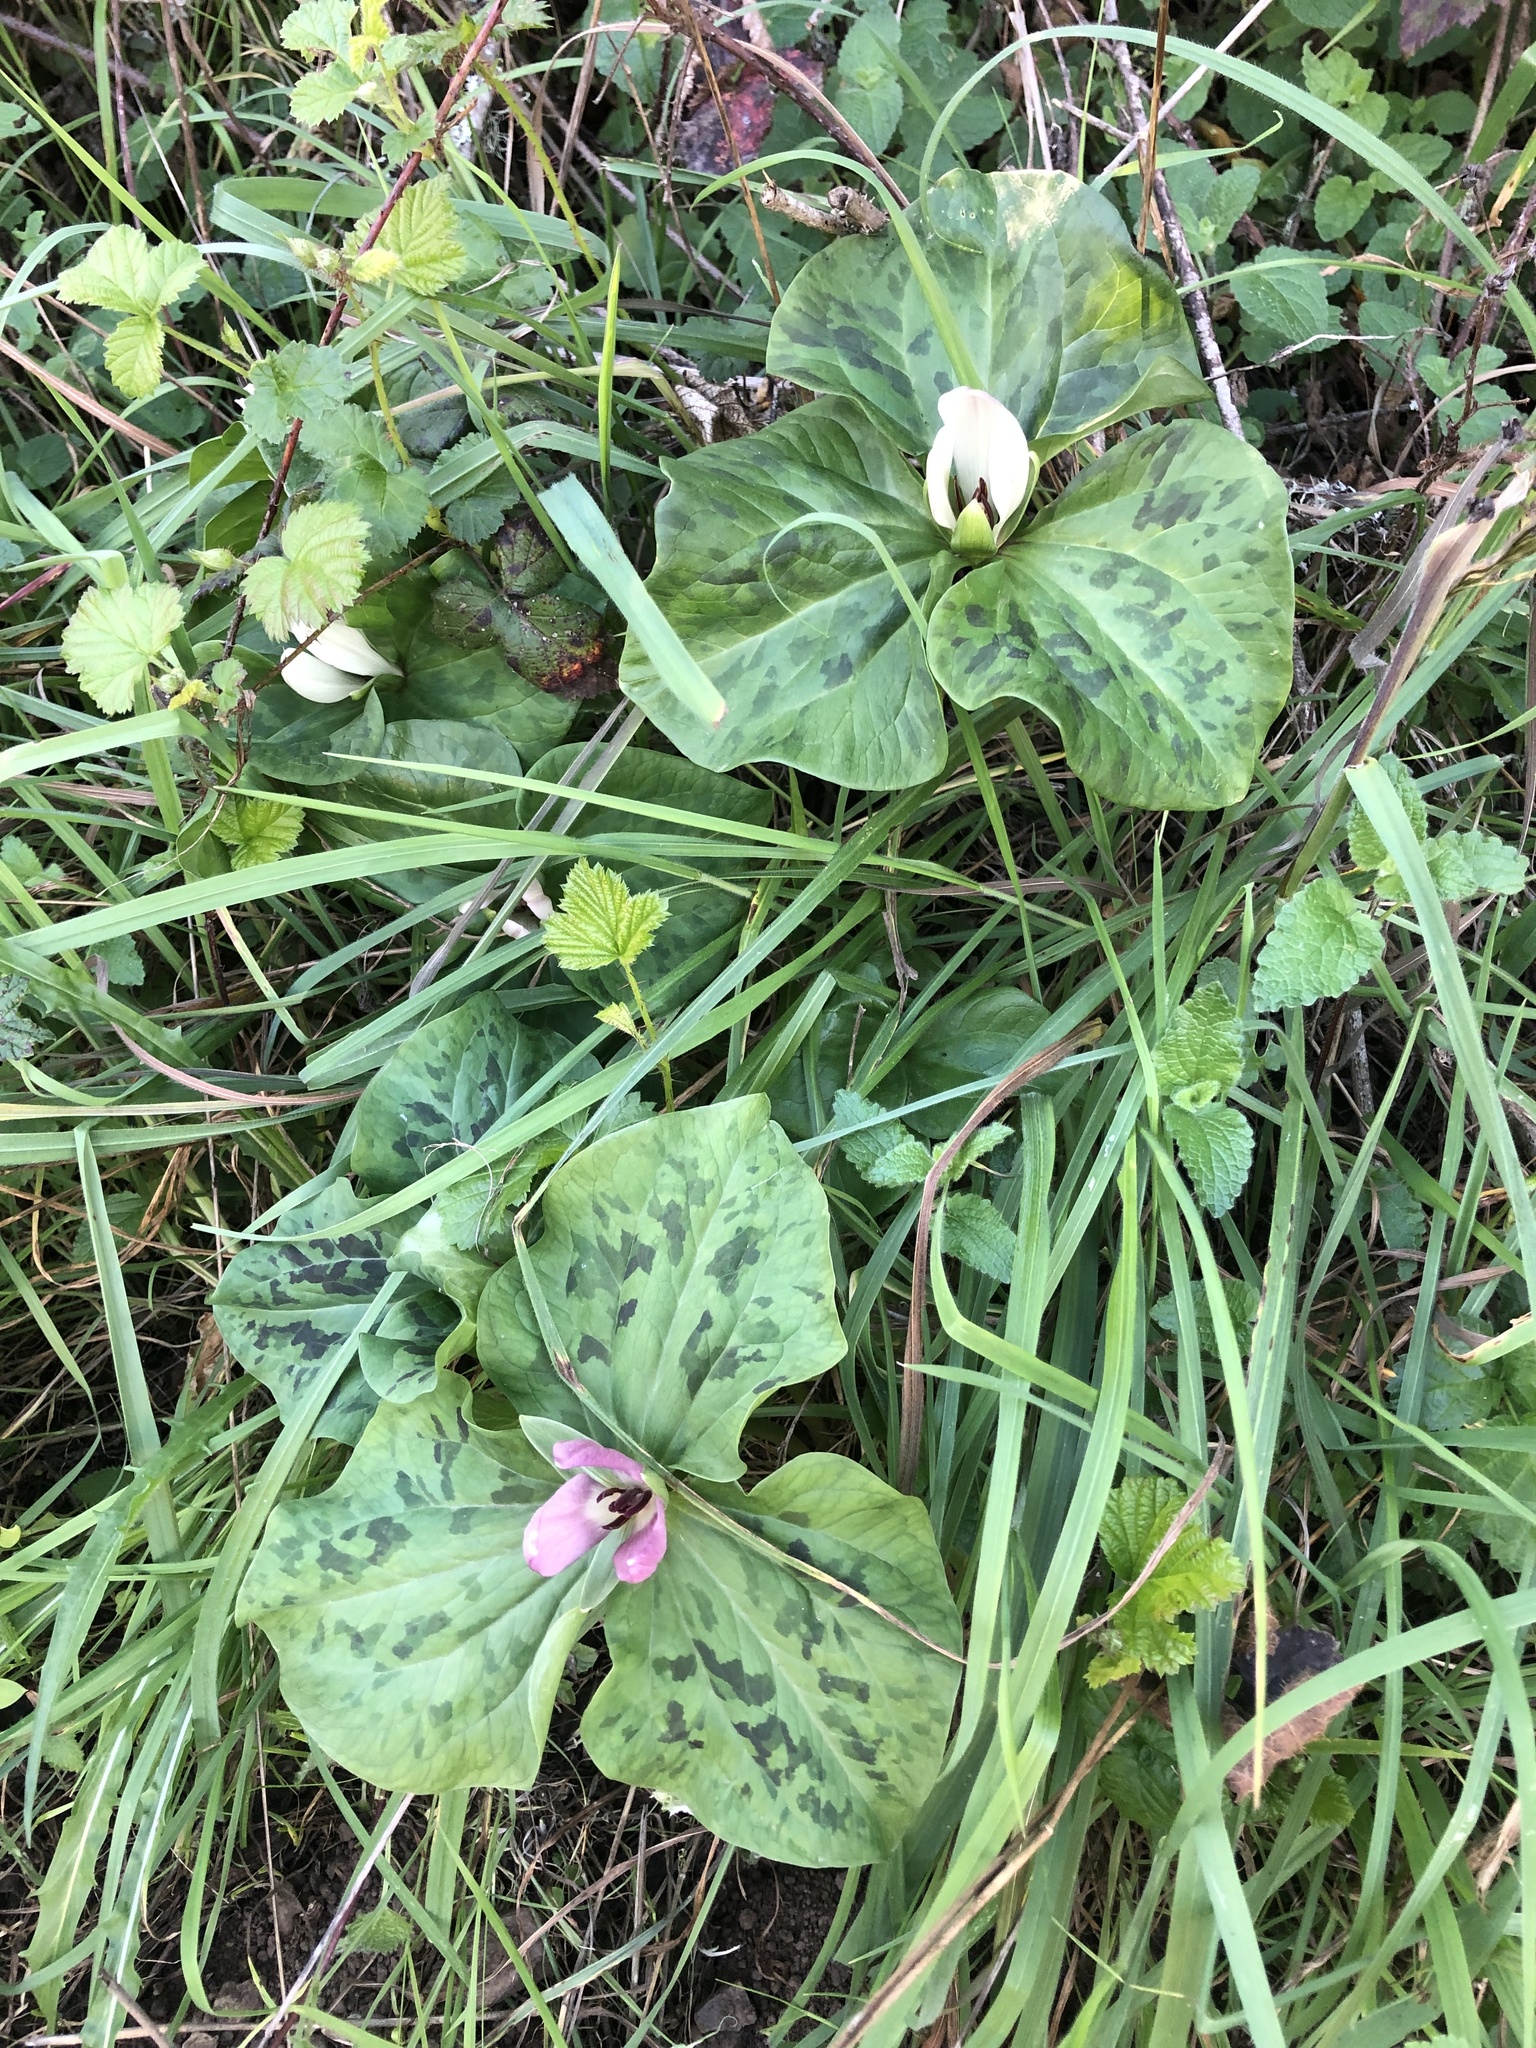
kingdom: Plantae
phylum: Tracheophyta
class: Liliopsida
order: Liliales
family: Melanthiaceae
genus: Trillium
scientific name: Trillium chloropetalum
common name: Giant trillium
